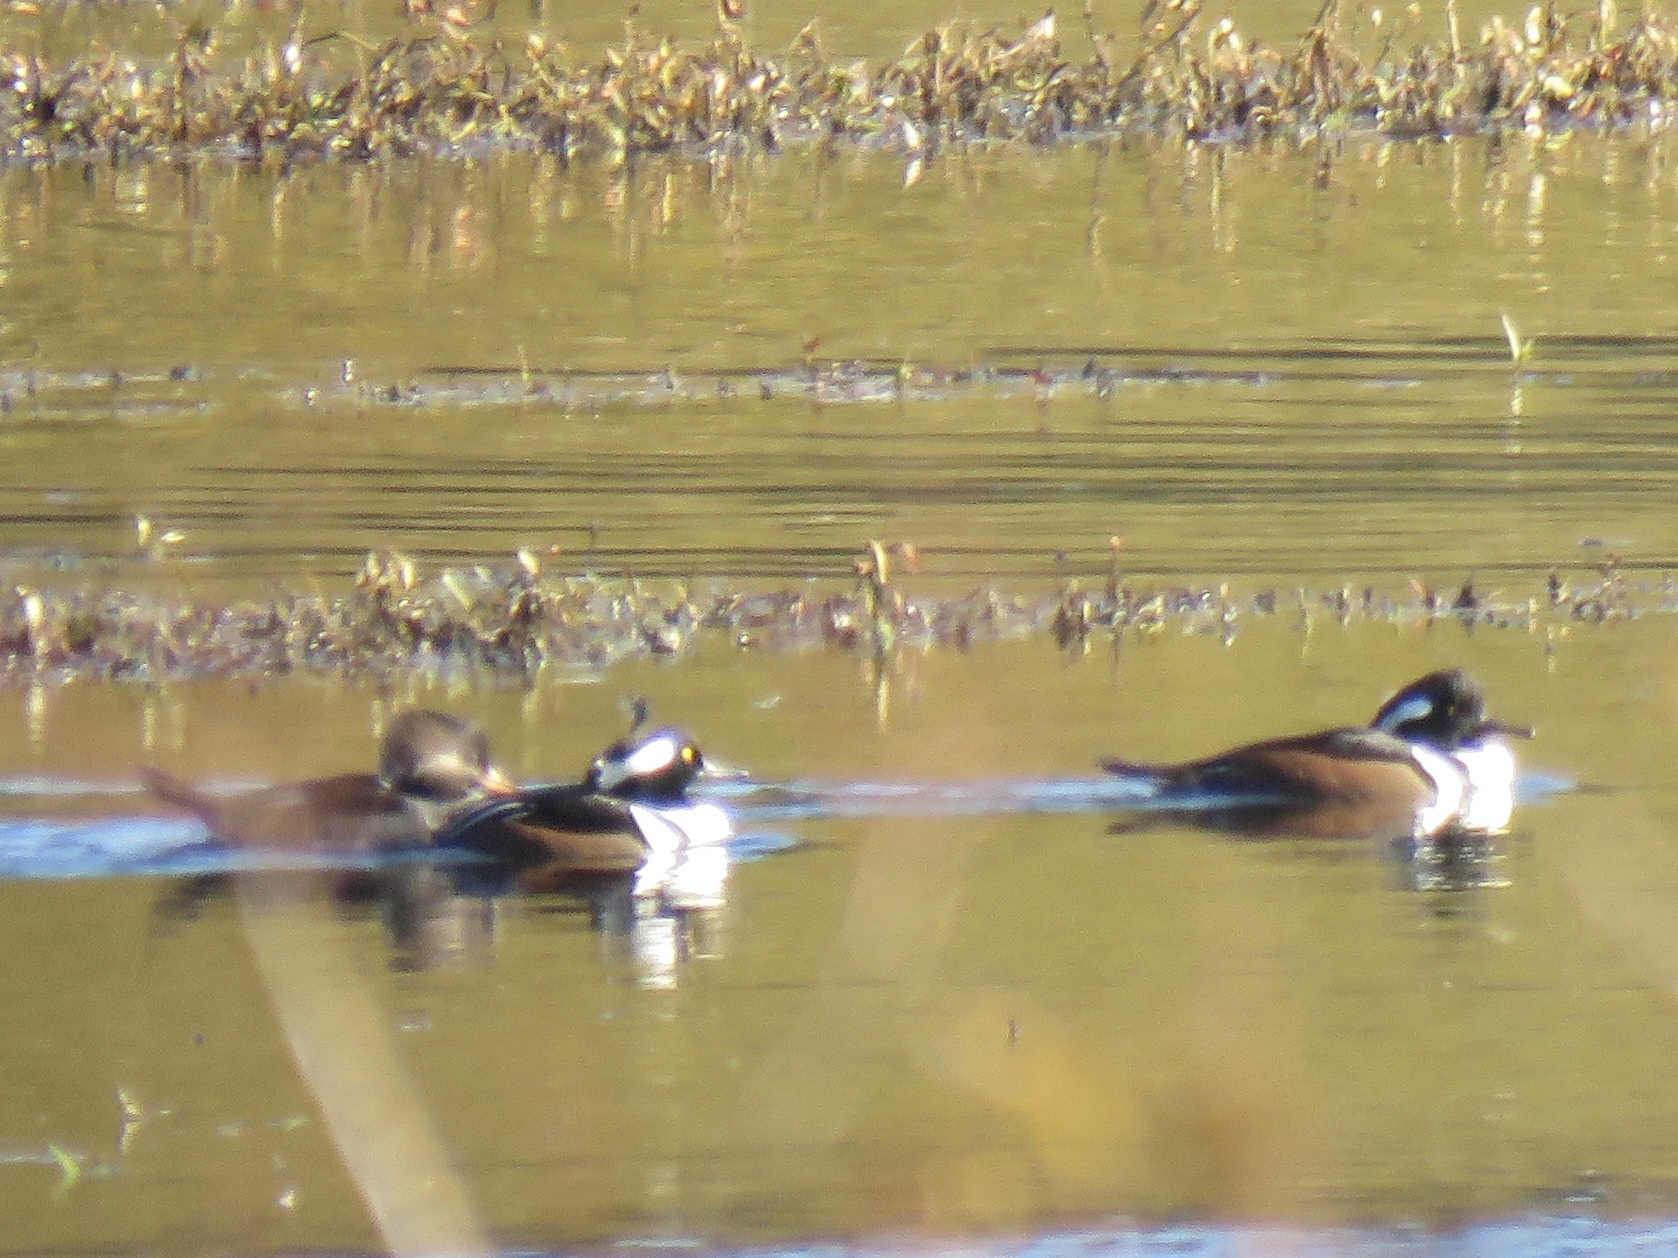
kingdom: Animalia
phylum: Chordata
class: Aves
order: Anseriformes
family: Anatidae
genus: Lophodytes
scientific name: Lophodytes cucullatus
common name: Hooded merganser
